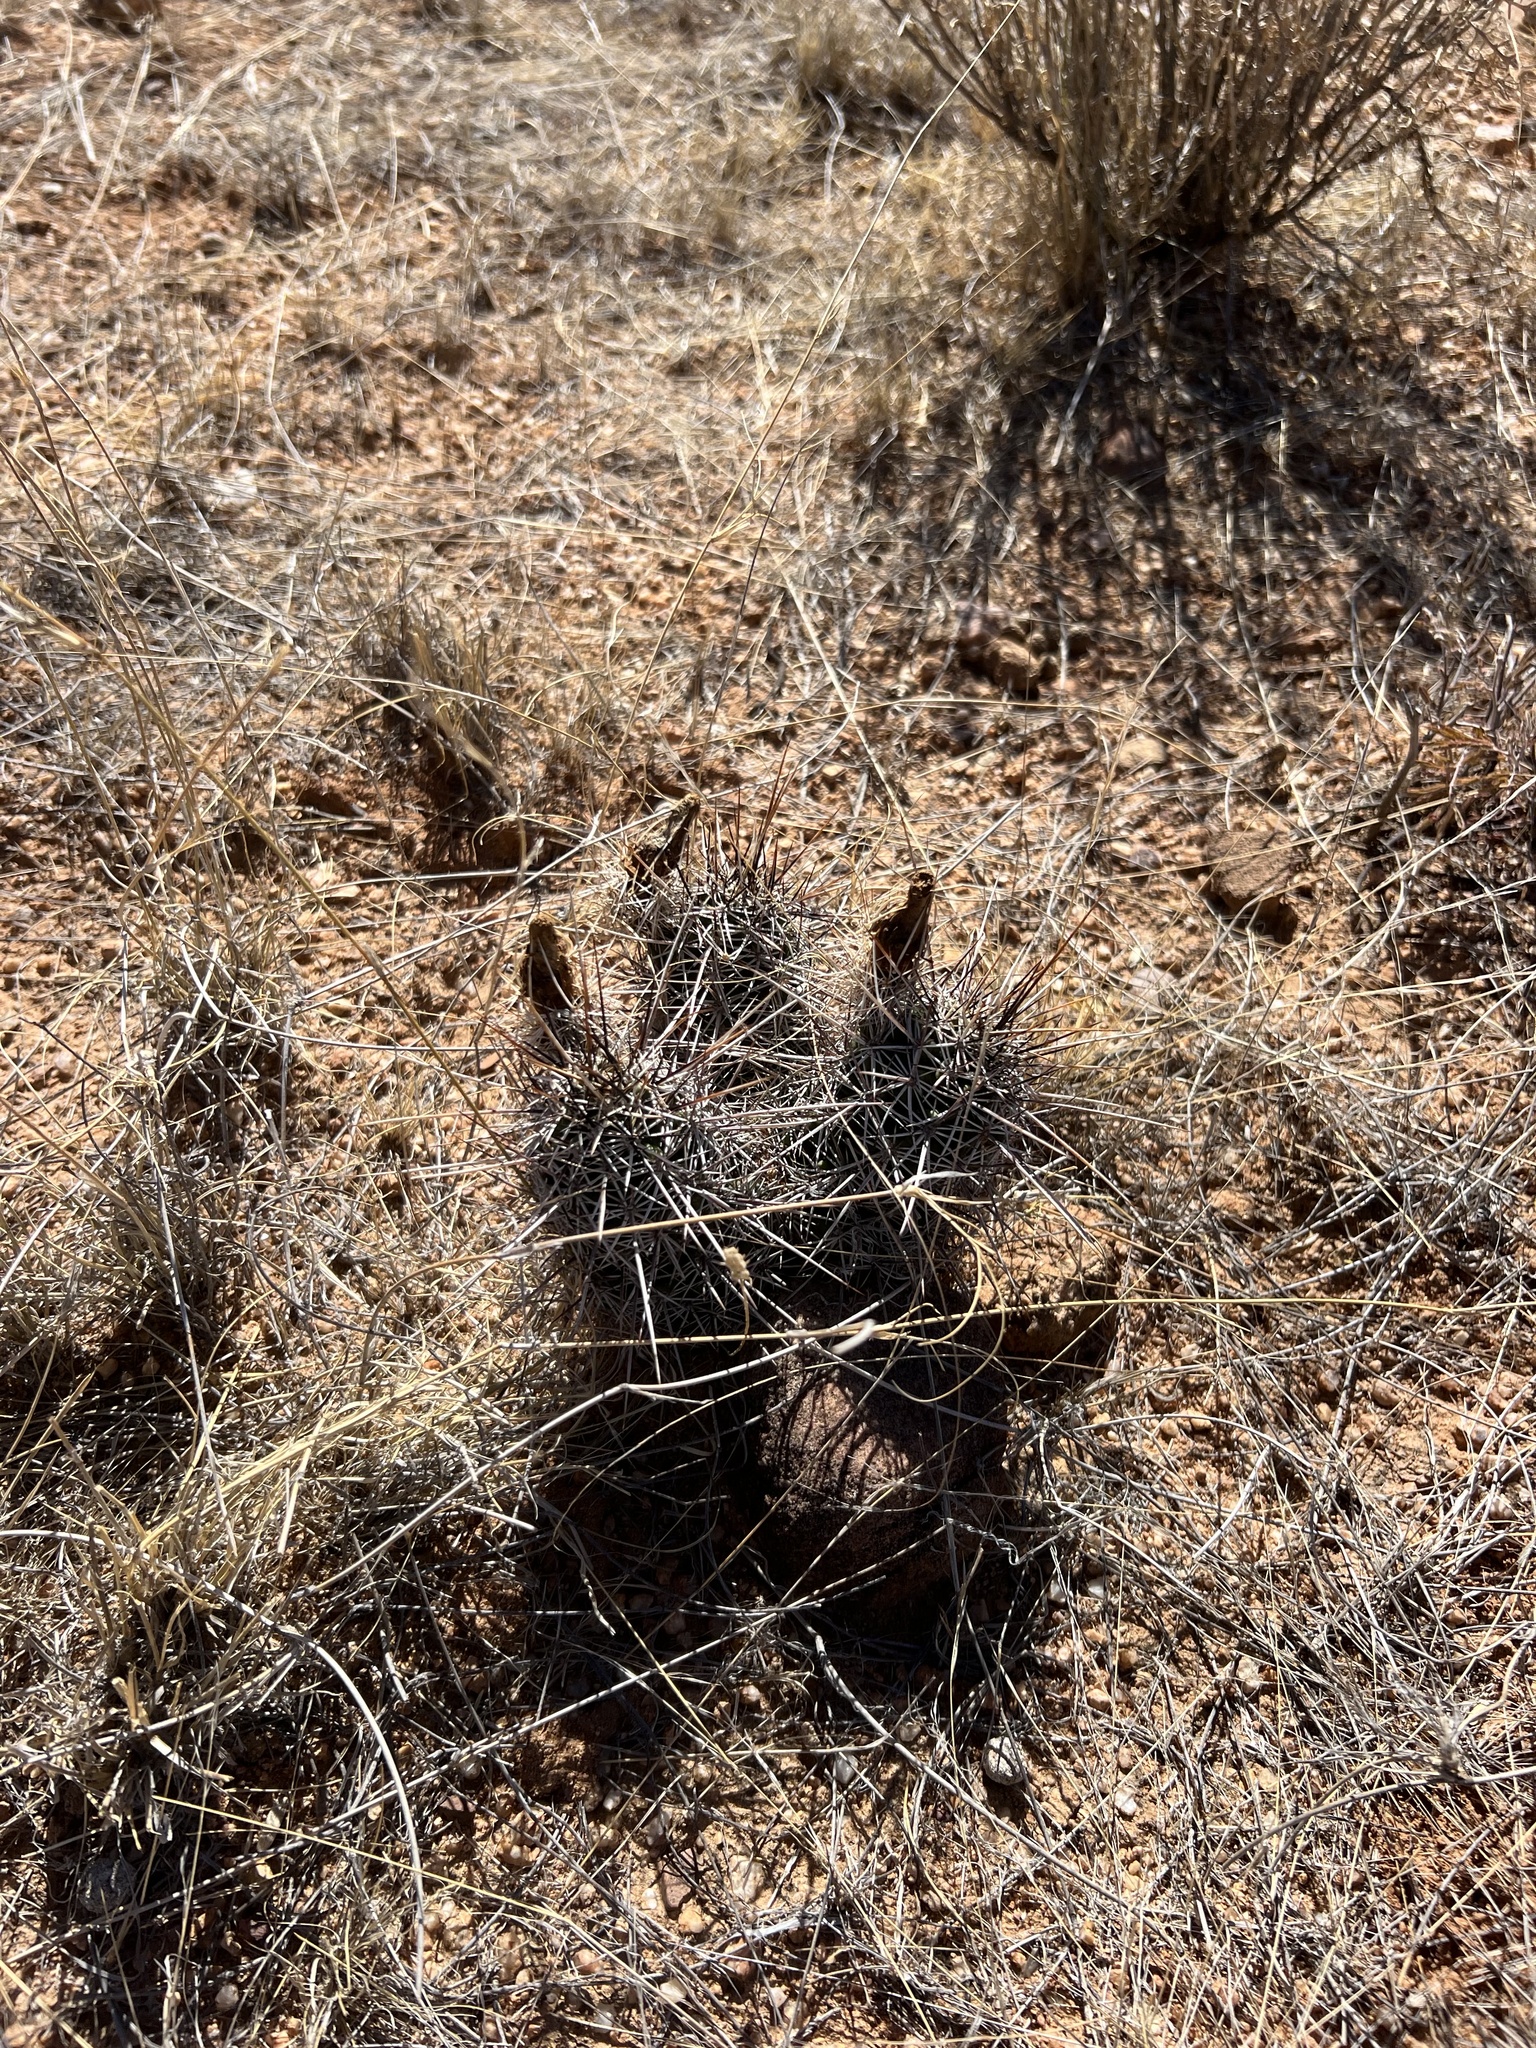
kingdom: Plantae
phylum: Tracheophyta
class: Magnoliopsida
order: Caryophyllales
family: Cactaceae
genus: Echinocereus
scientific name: Echinocereus fasciculatus
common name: Bundle hedgehog
